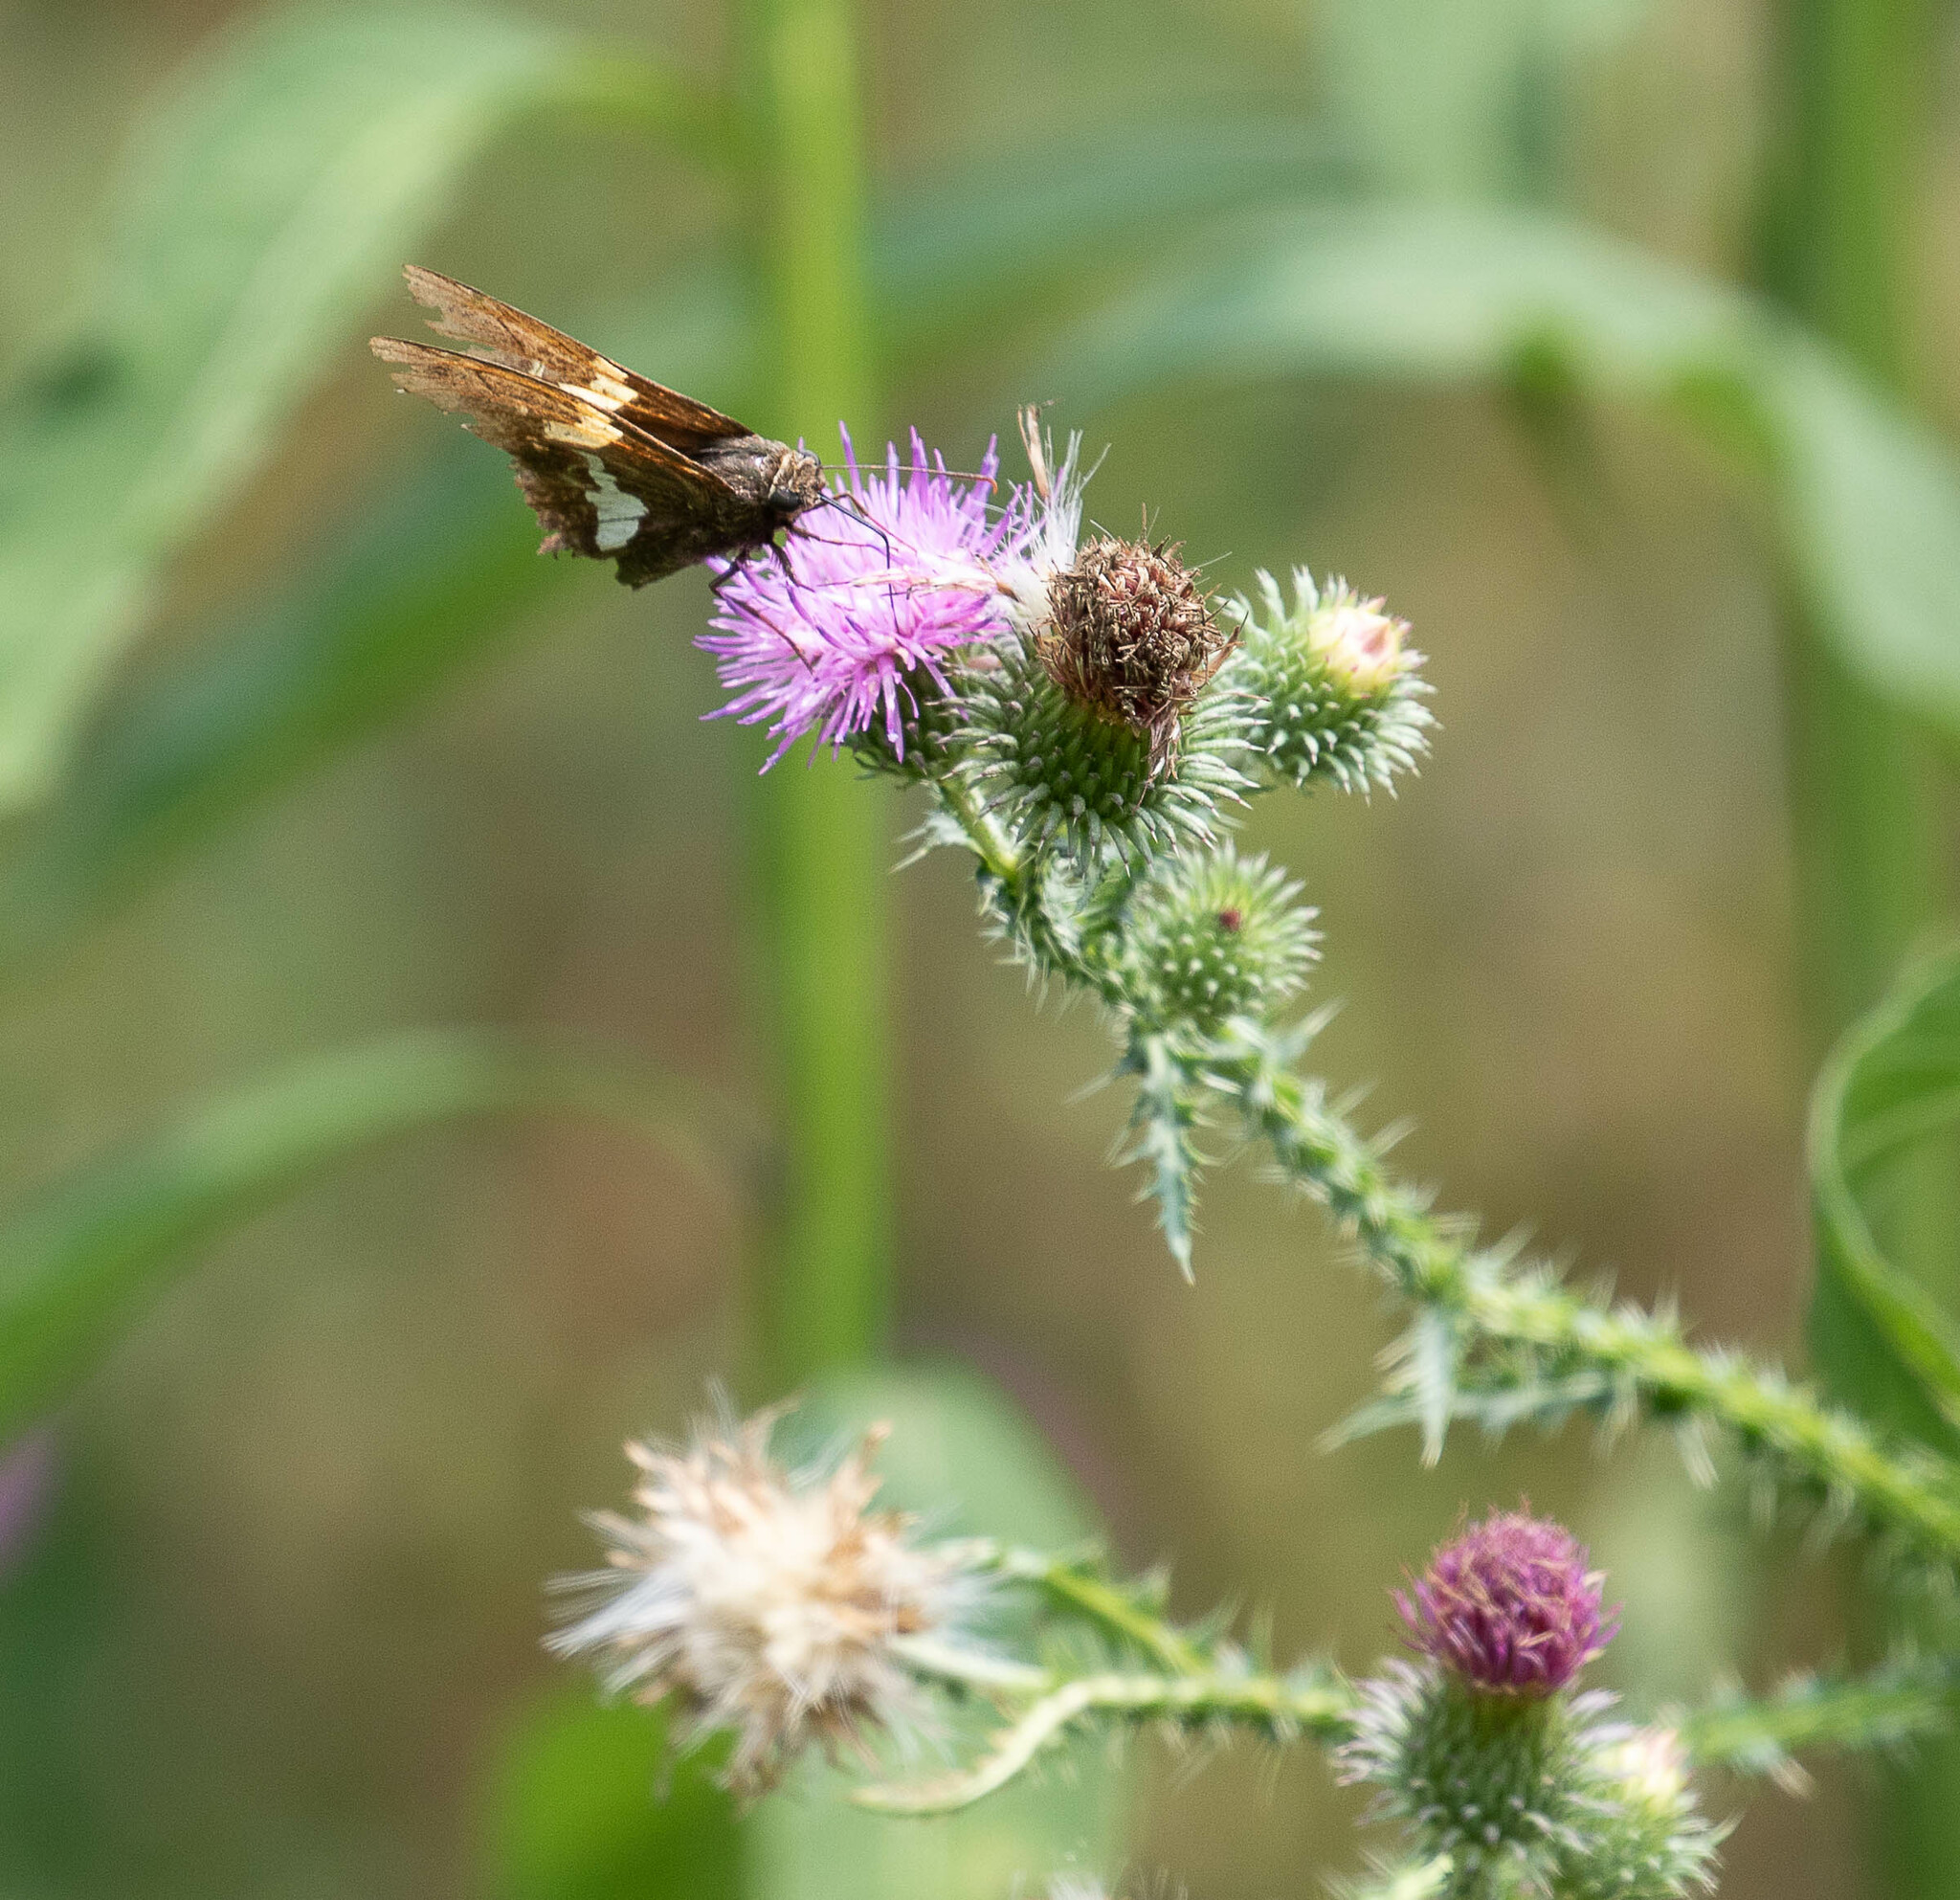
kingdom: Animalia
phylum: Arthropoda
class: Insecta
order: Lepidoptera
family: Hesperiidae
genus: Epargyreus
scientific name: Epargyreus clarus
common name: Silver-spotted skipper
